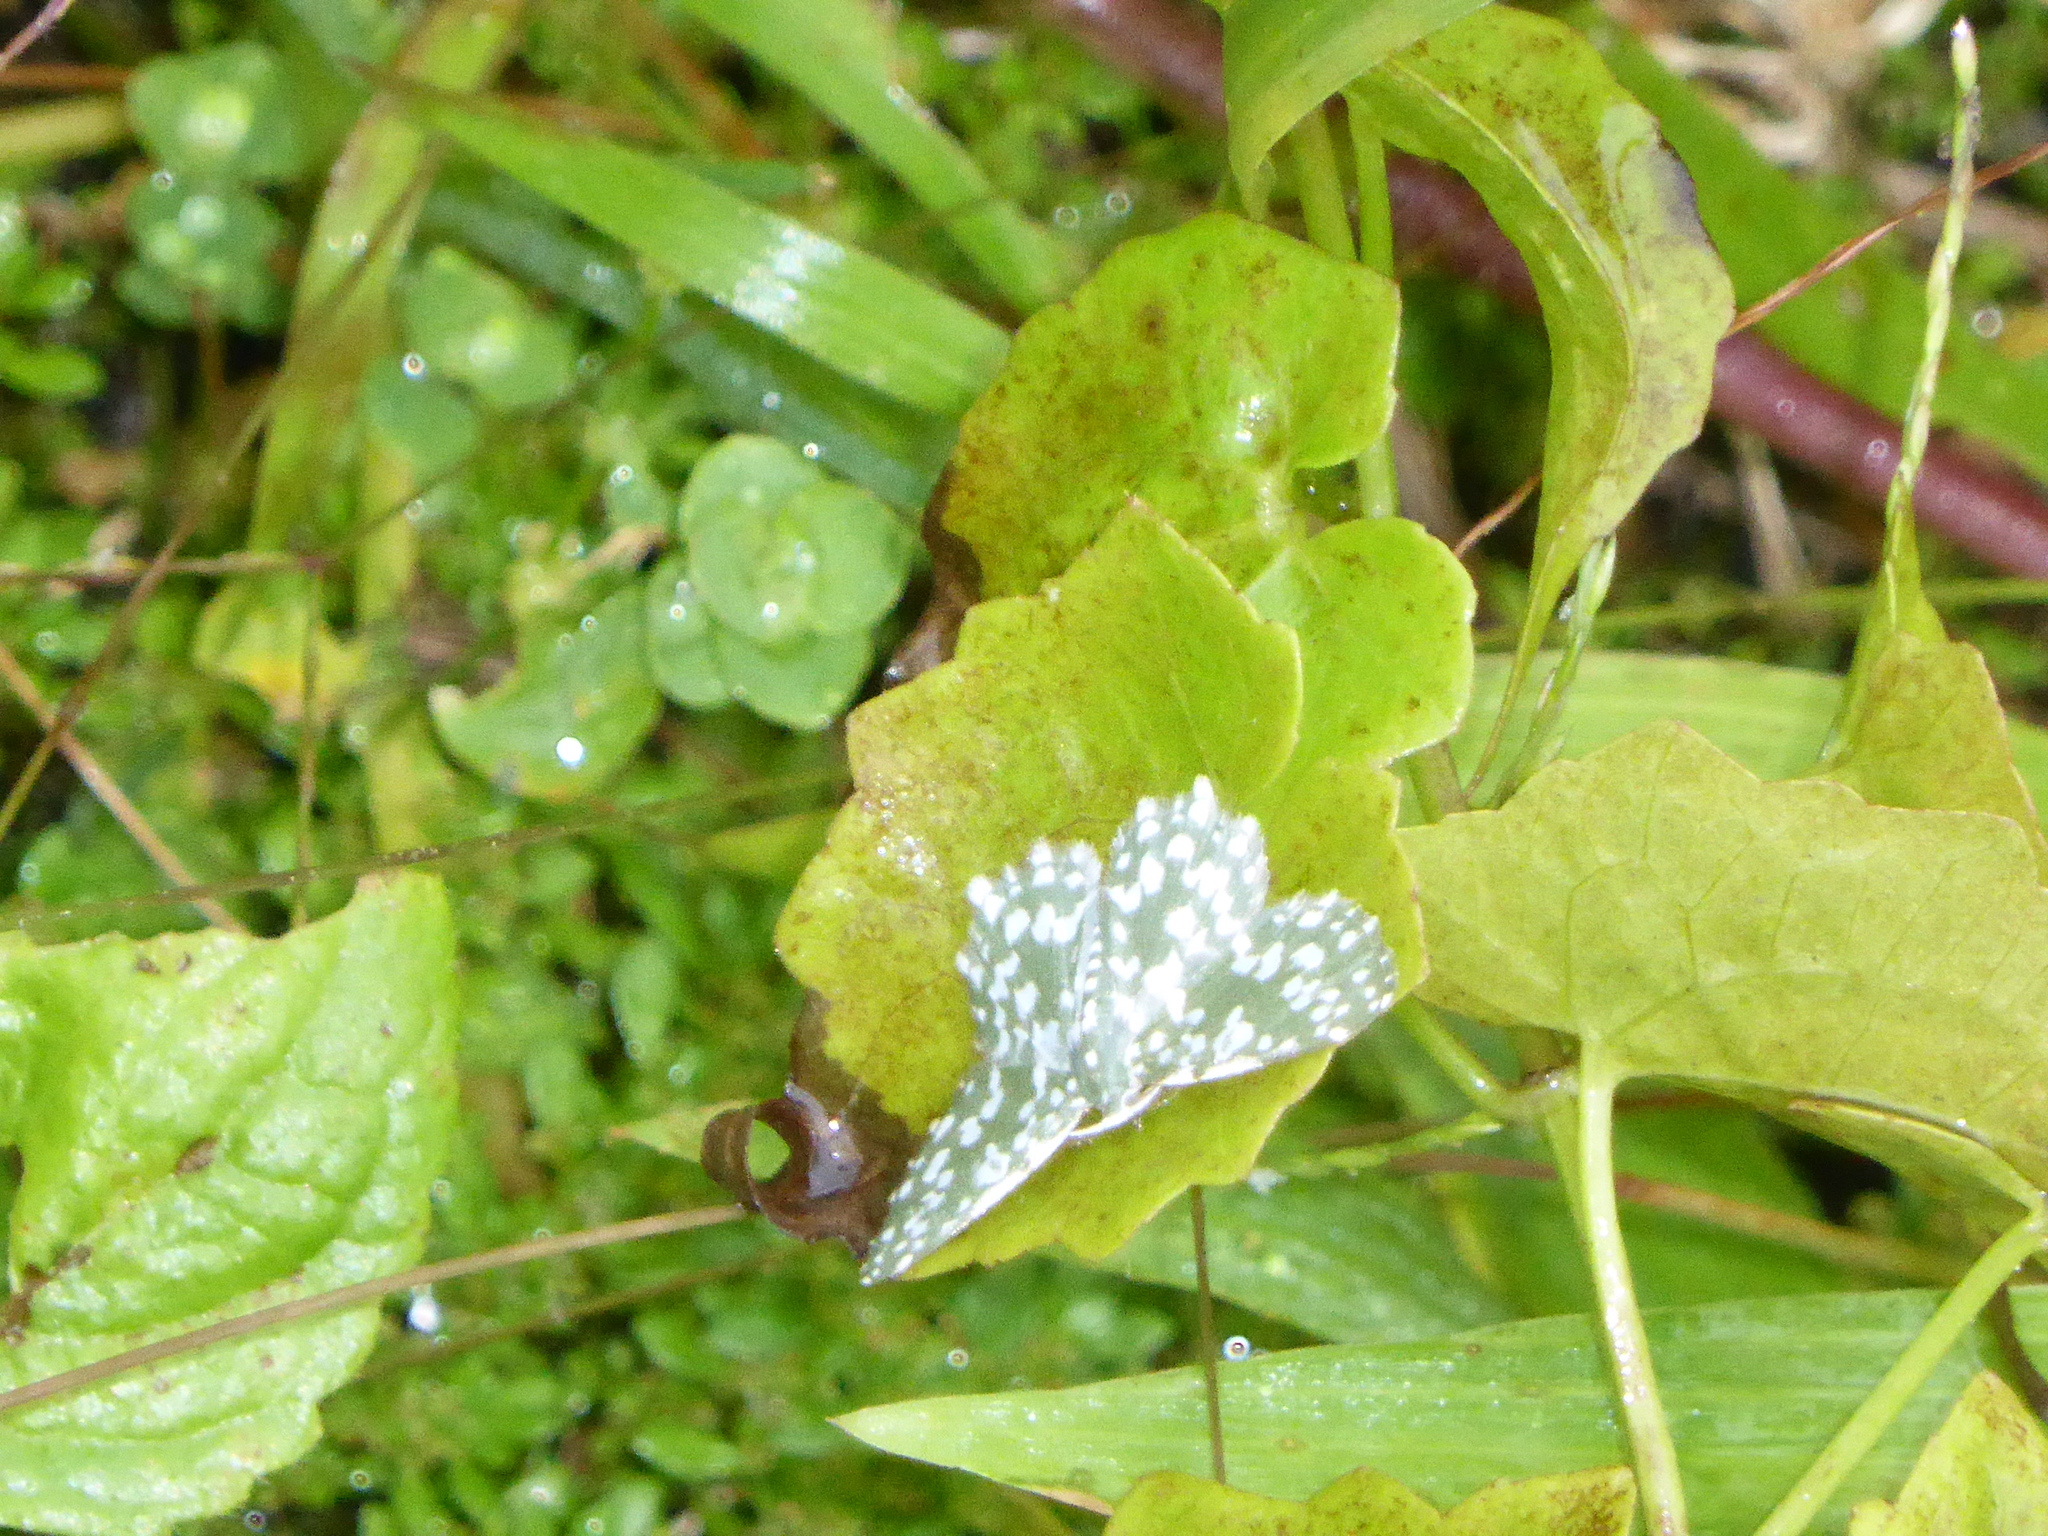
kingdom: Animalia
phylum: Arthropoda
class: Insecta
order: Lepidoptera
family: Geometridae
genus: Berta
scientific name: Berta albiplaga
